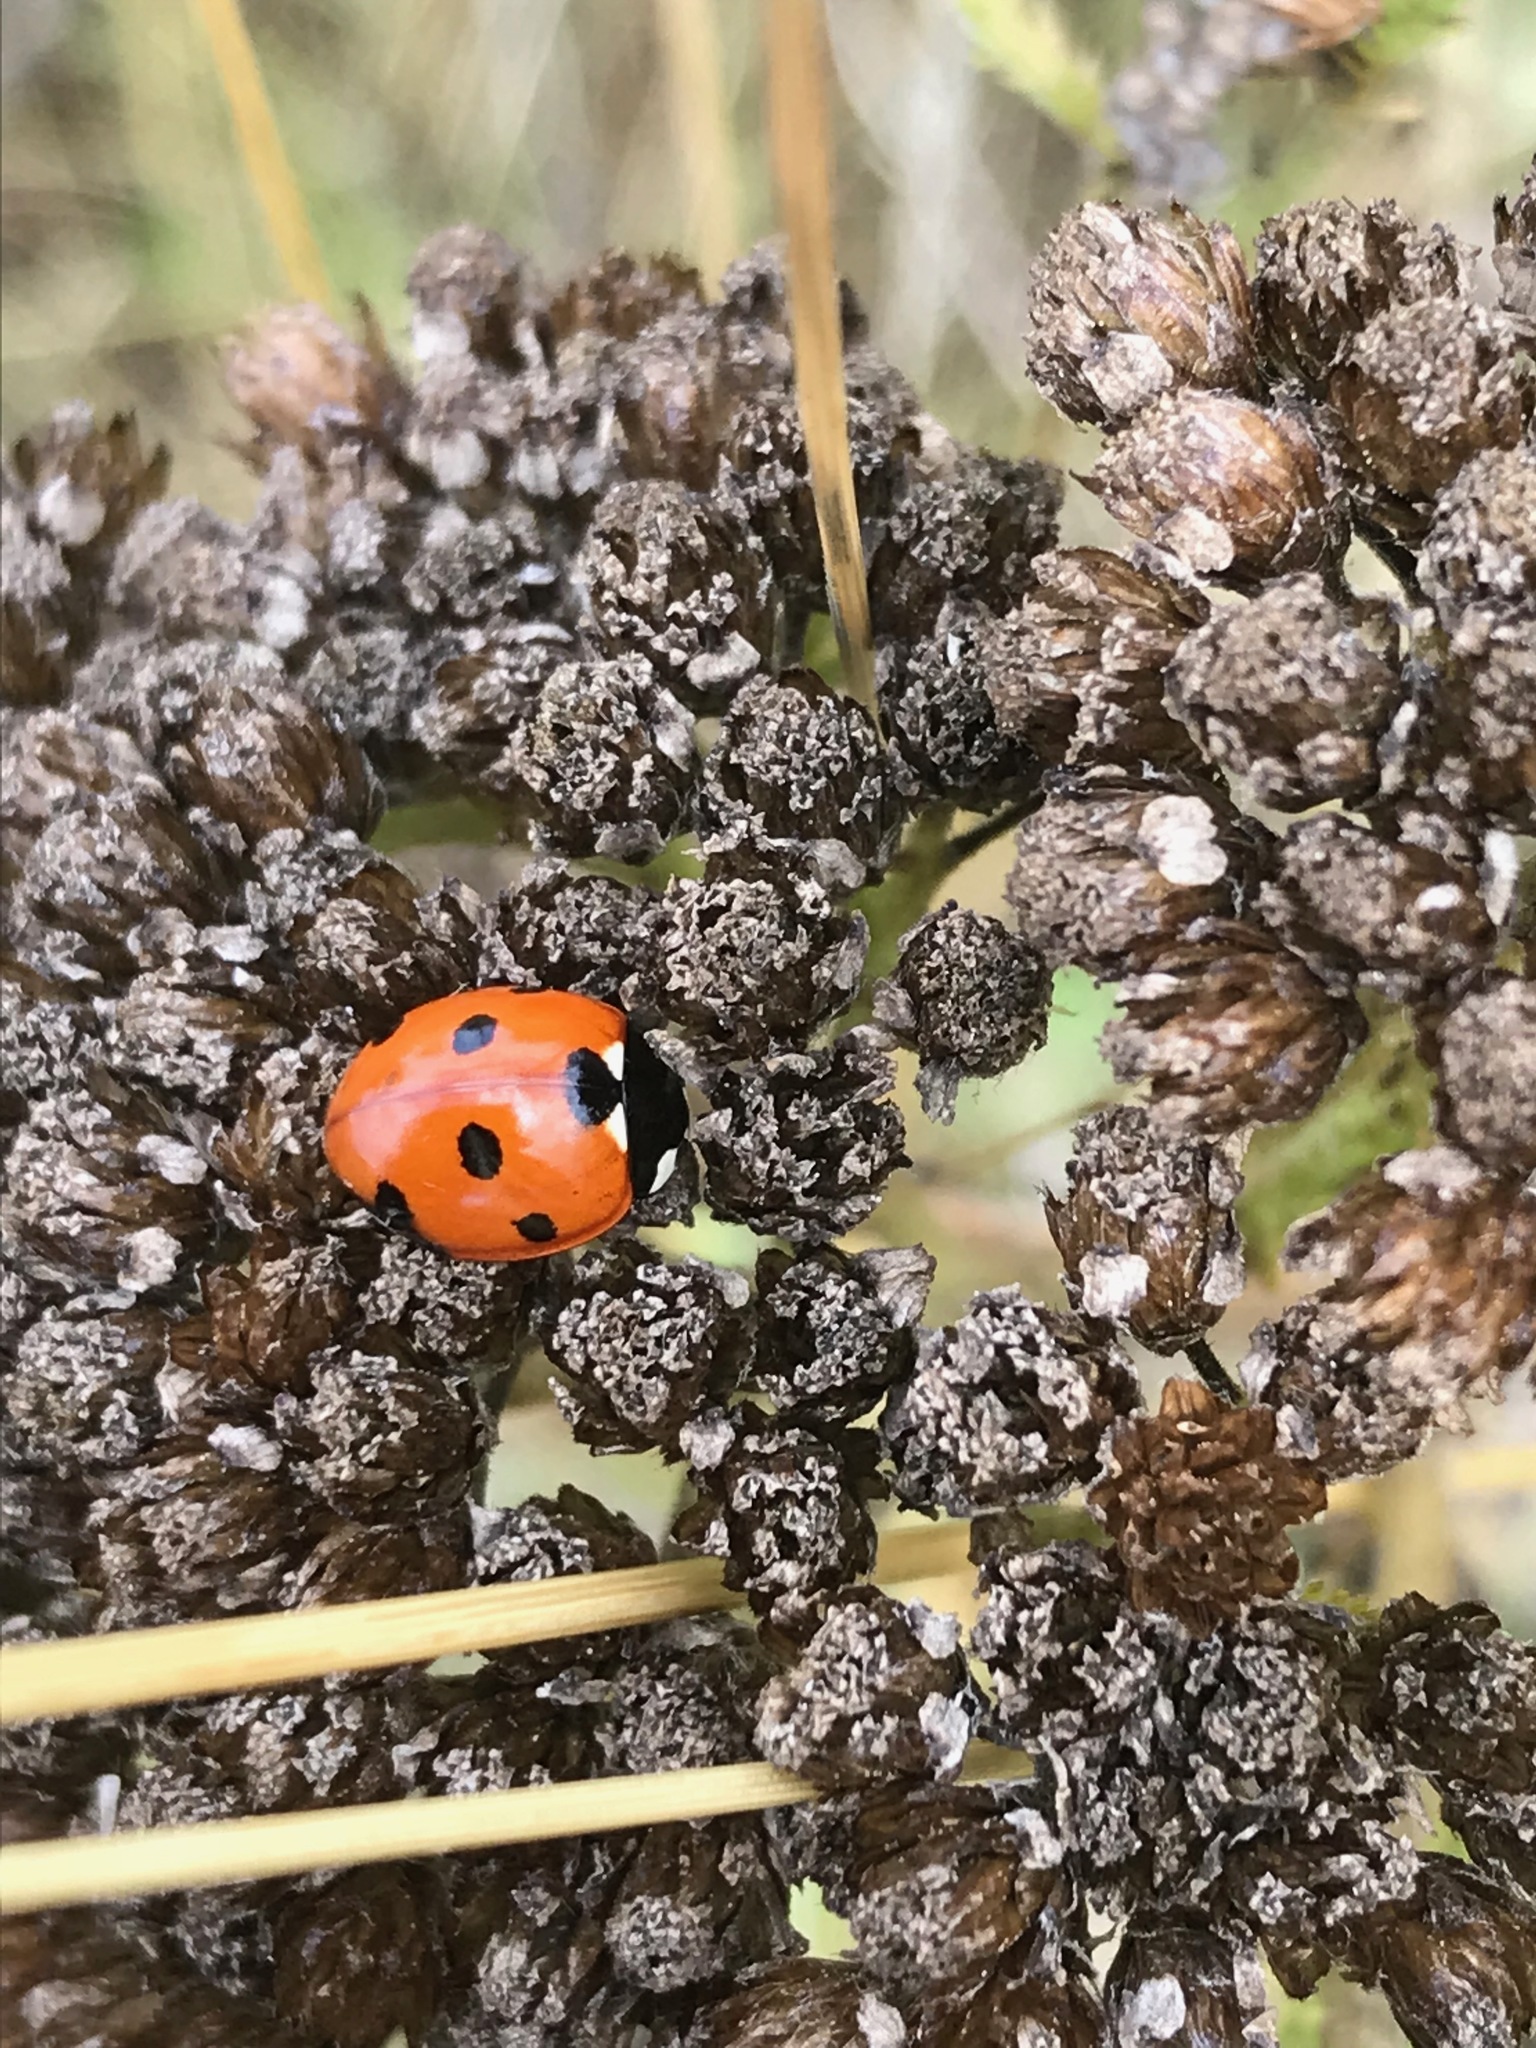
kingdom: Animalia
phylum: Arthropoda
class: Insecta
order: Coleoptera
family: Coccinellidae
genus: Coccinella
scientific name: Coccinella septempunctata
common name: Sevenspotted lady beetle
